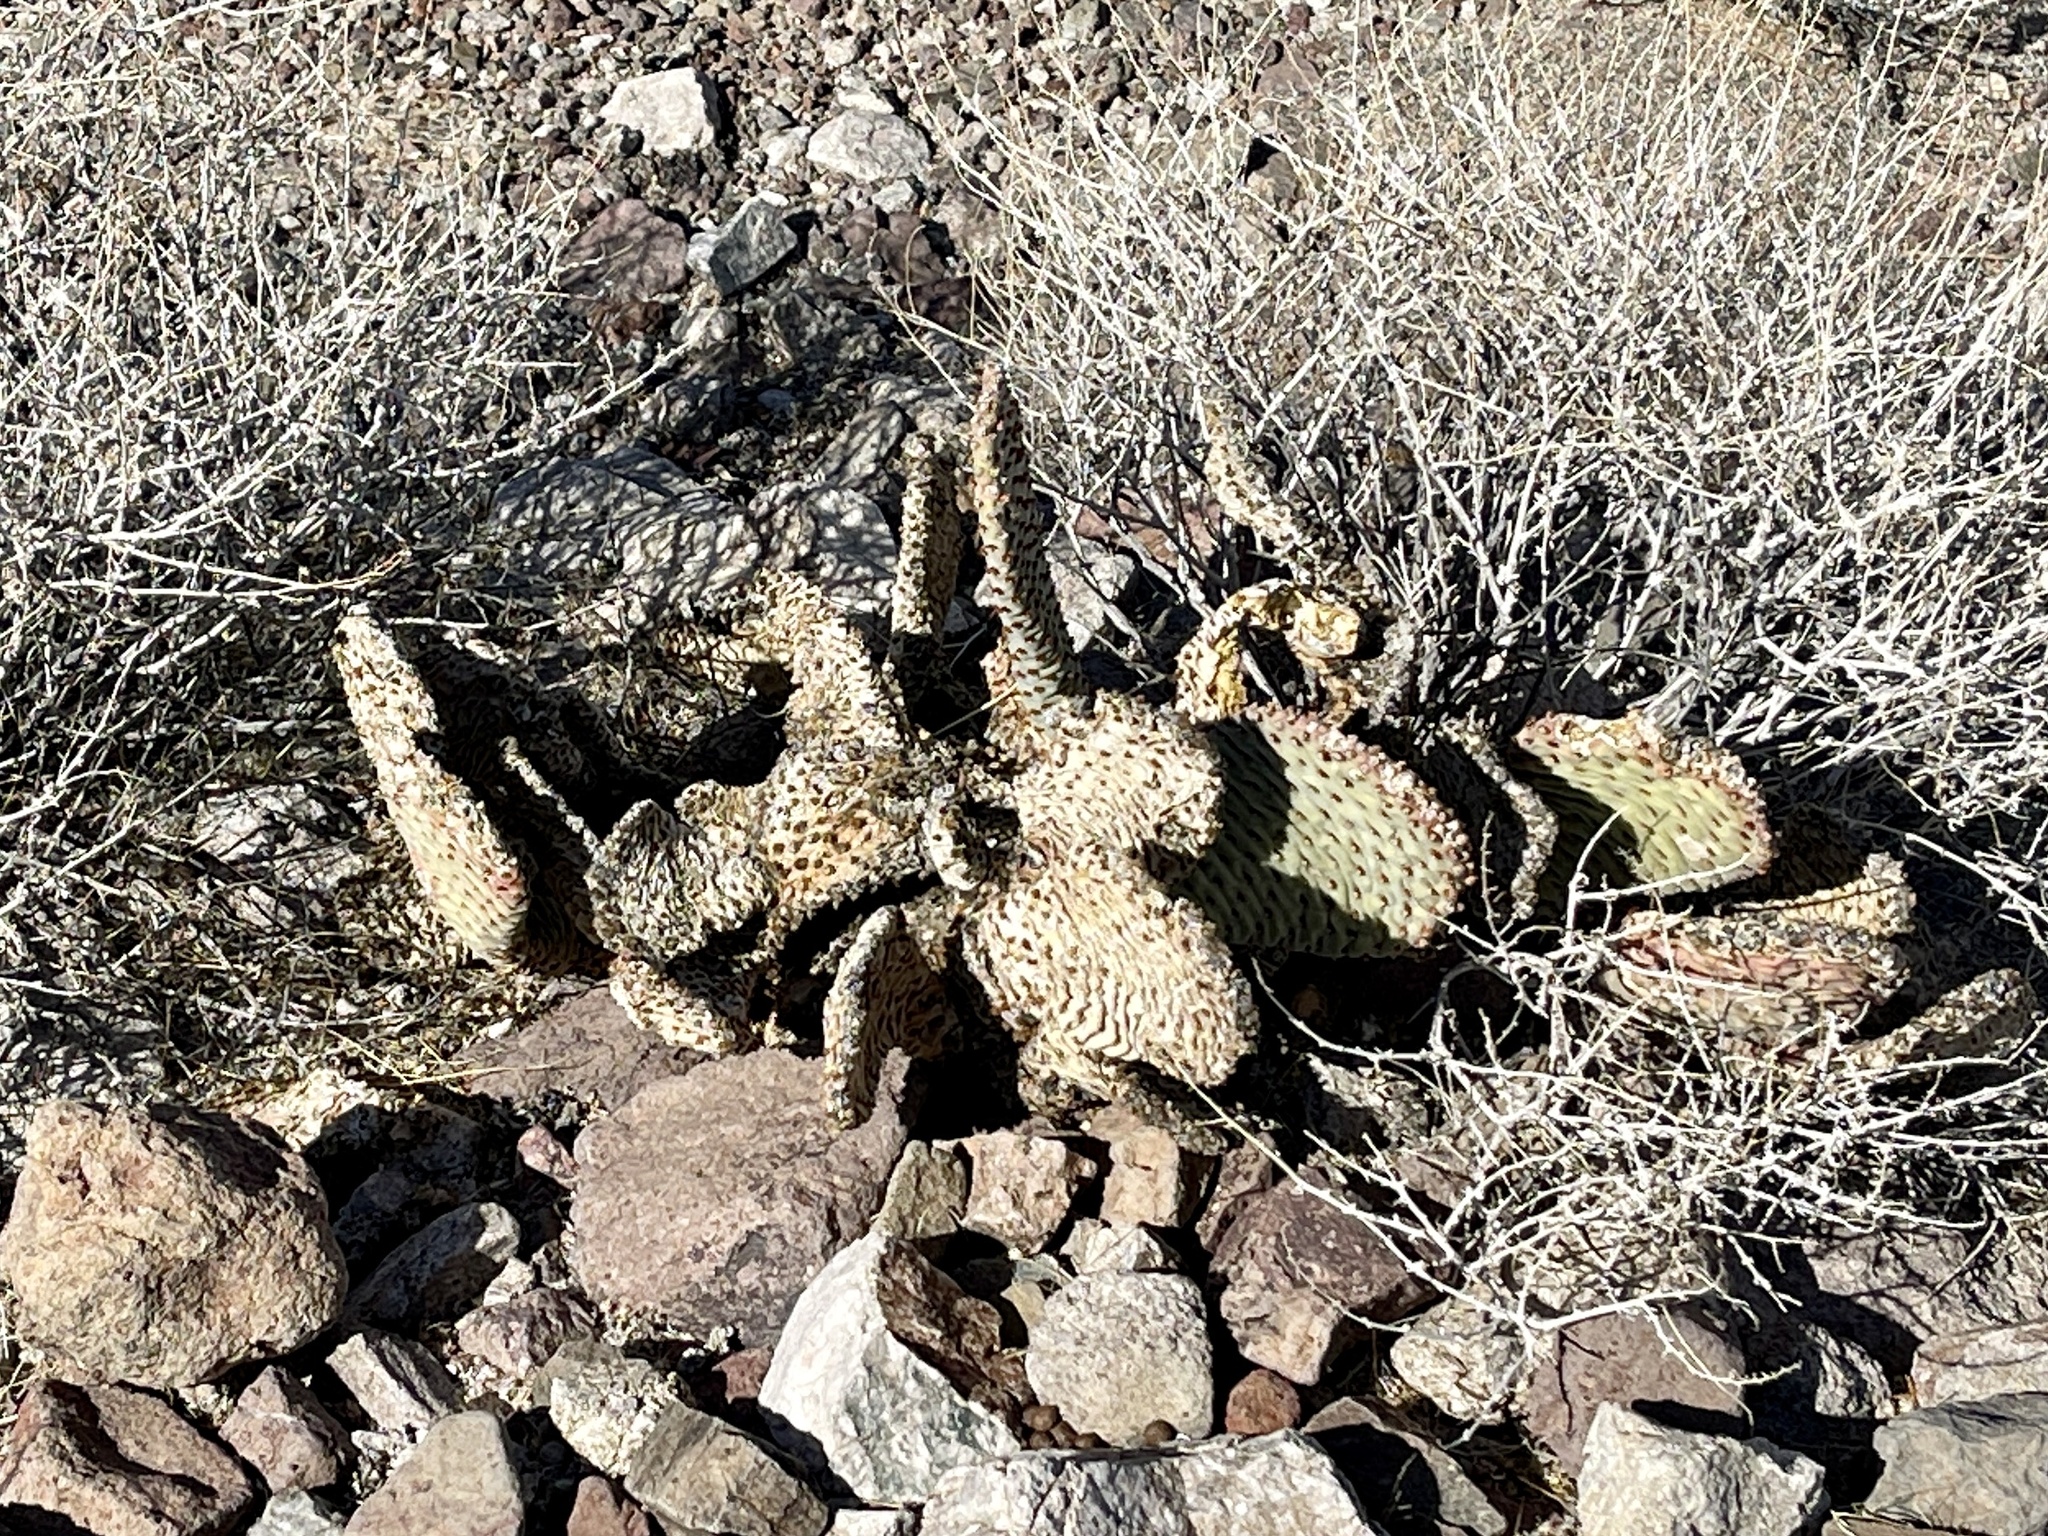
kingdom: Plantae
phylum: Tracheophyta
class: Magnoliopsida
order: Caryophyllales
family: Cactaceae
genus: Opuntia
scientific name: Opuntia basilaris
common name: Beavertail prickly-pear
